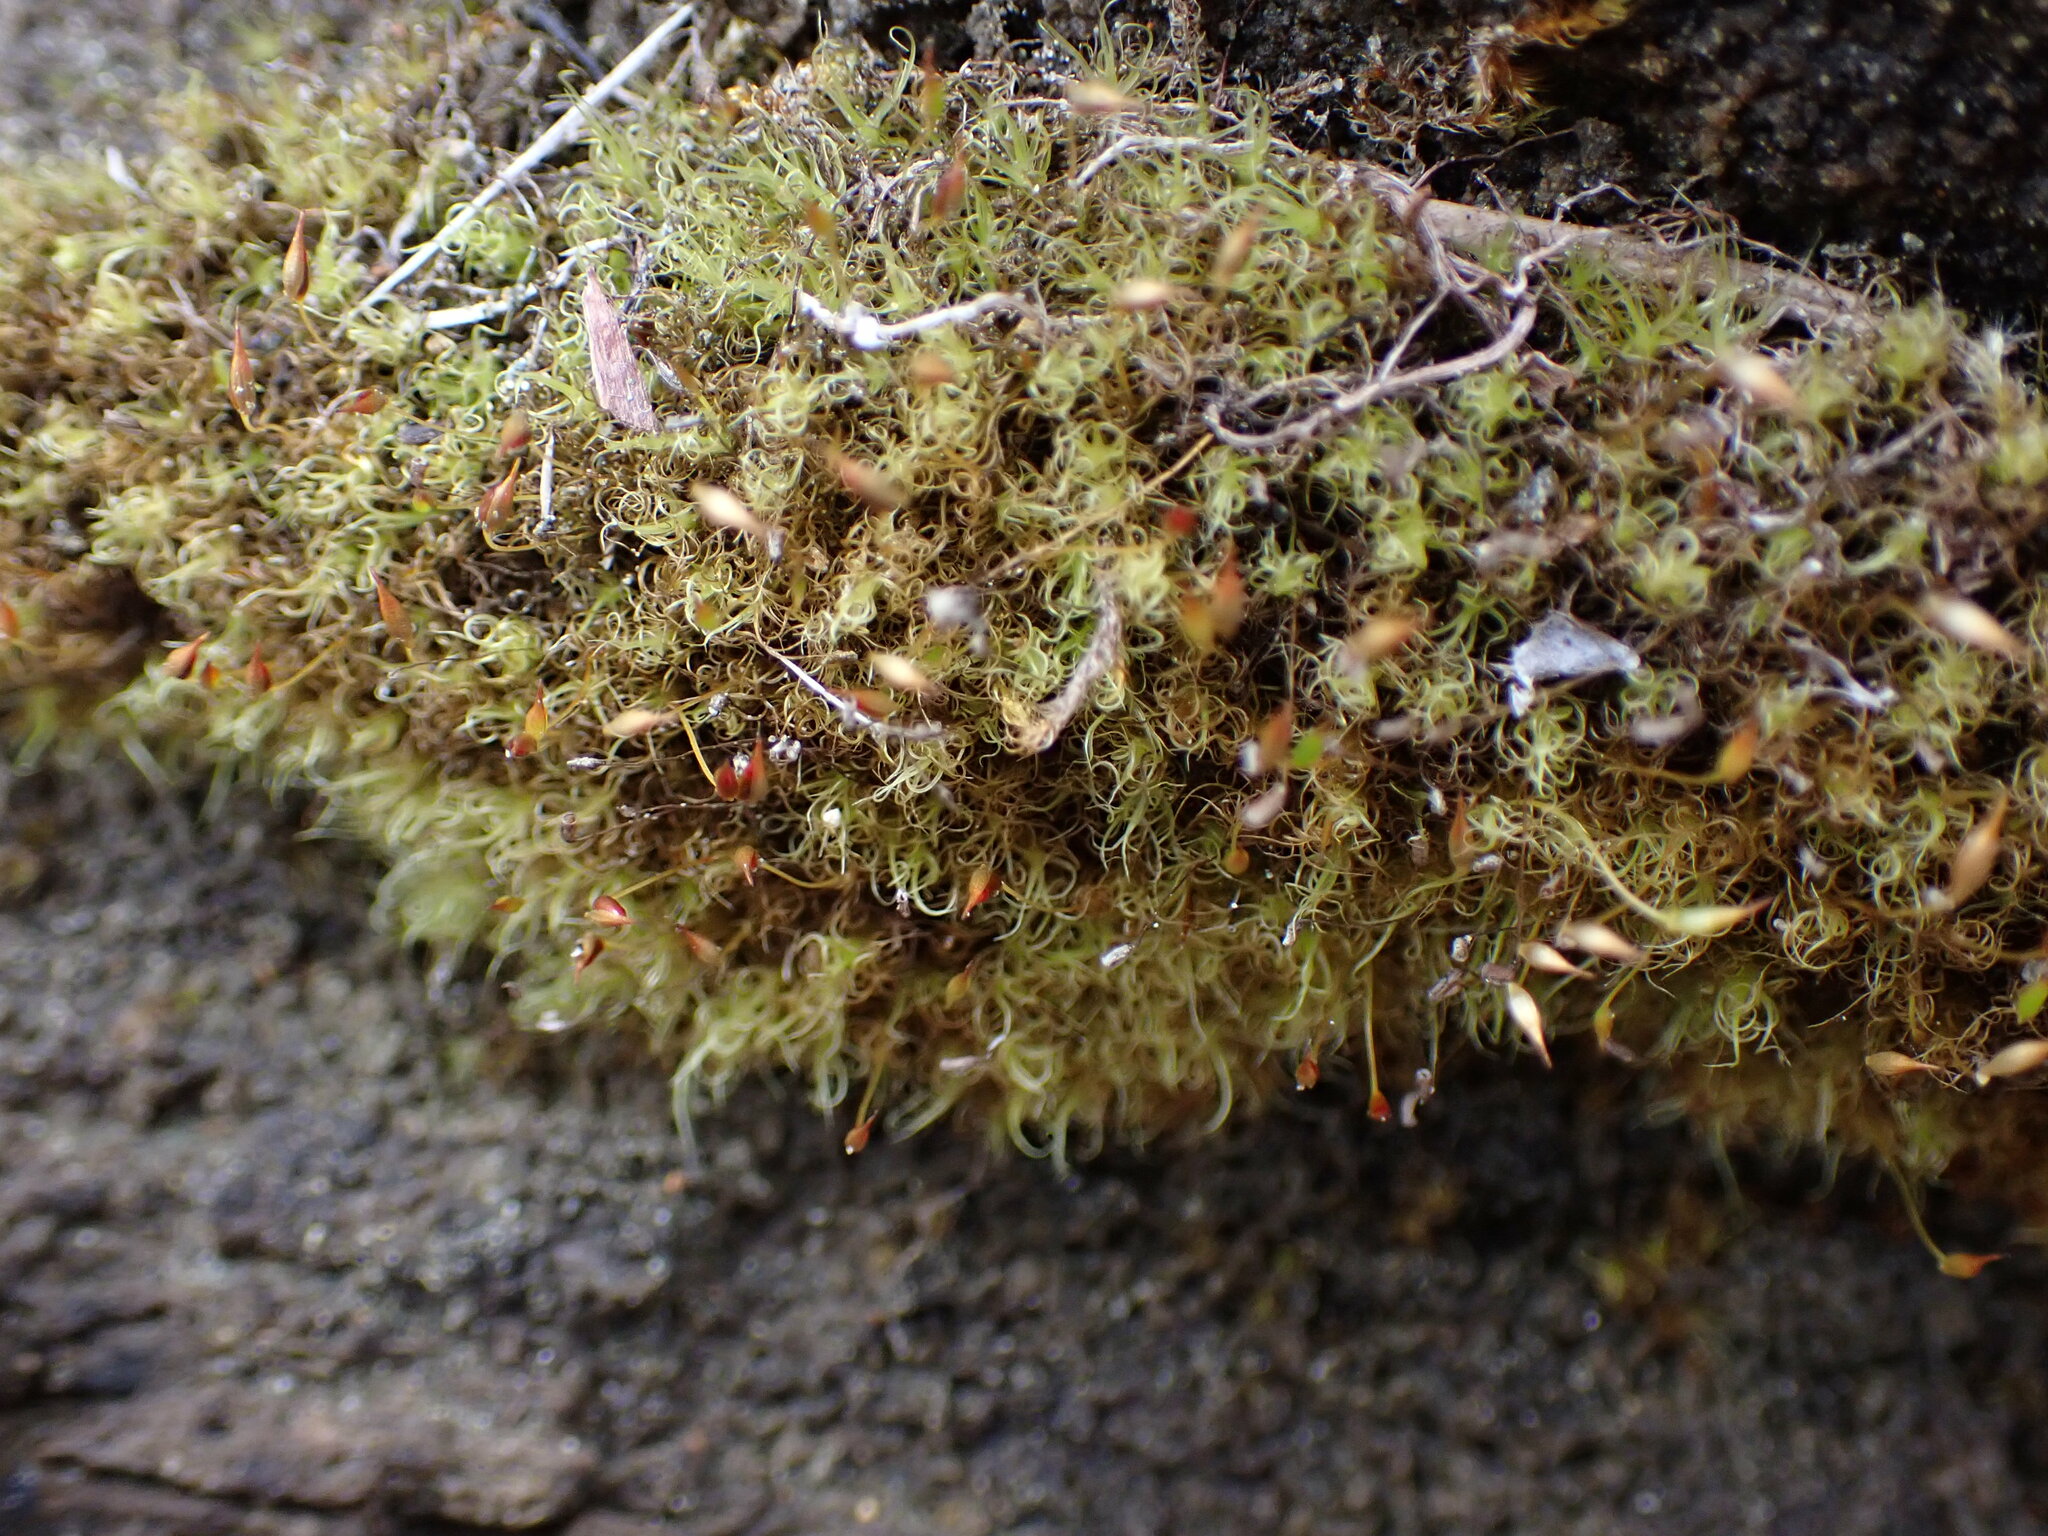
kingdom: Plantae
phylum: Bryophyta
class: Bryopsida
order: Dicranales
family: Rhabdoweisiaceae
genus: Brideliella
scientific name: Brideliella wahlenbergii
